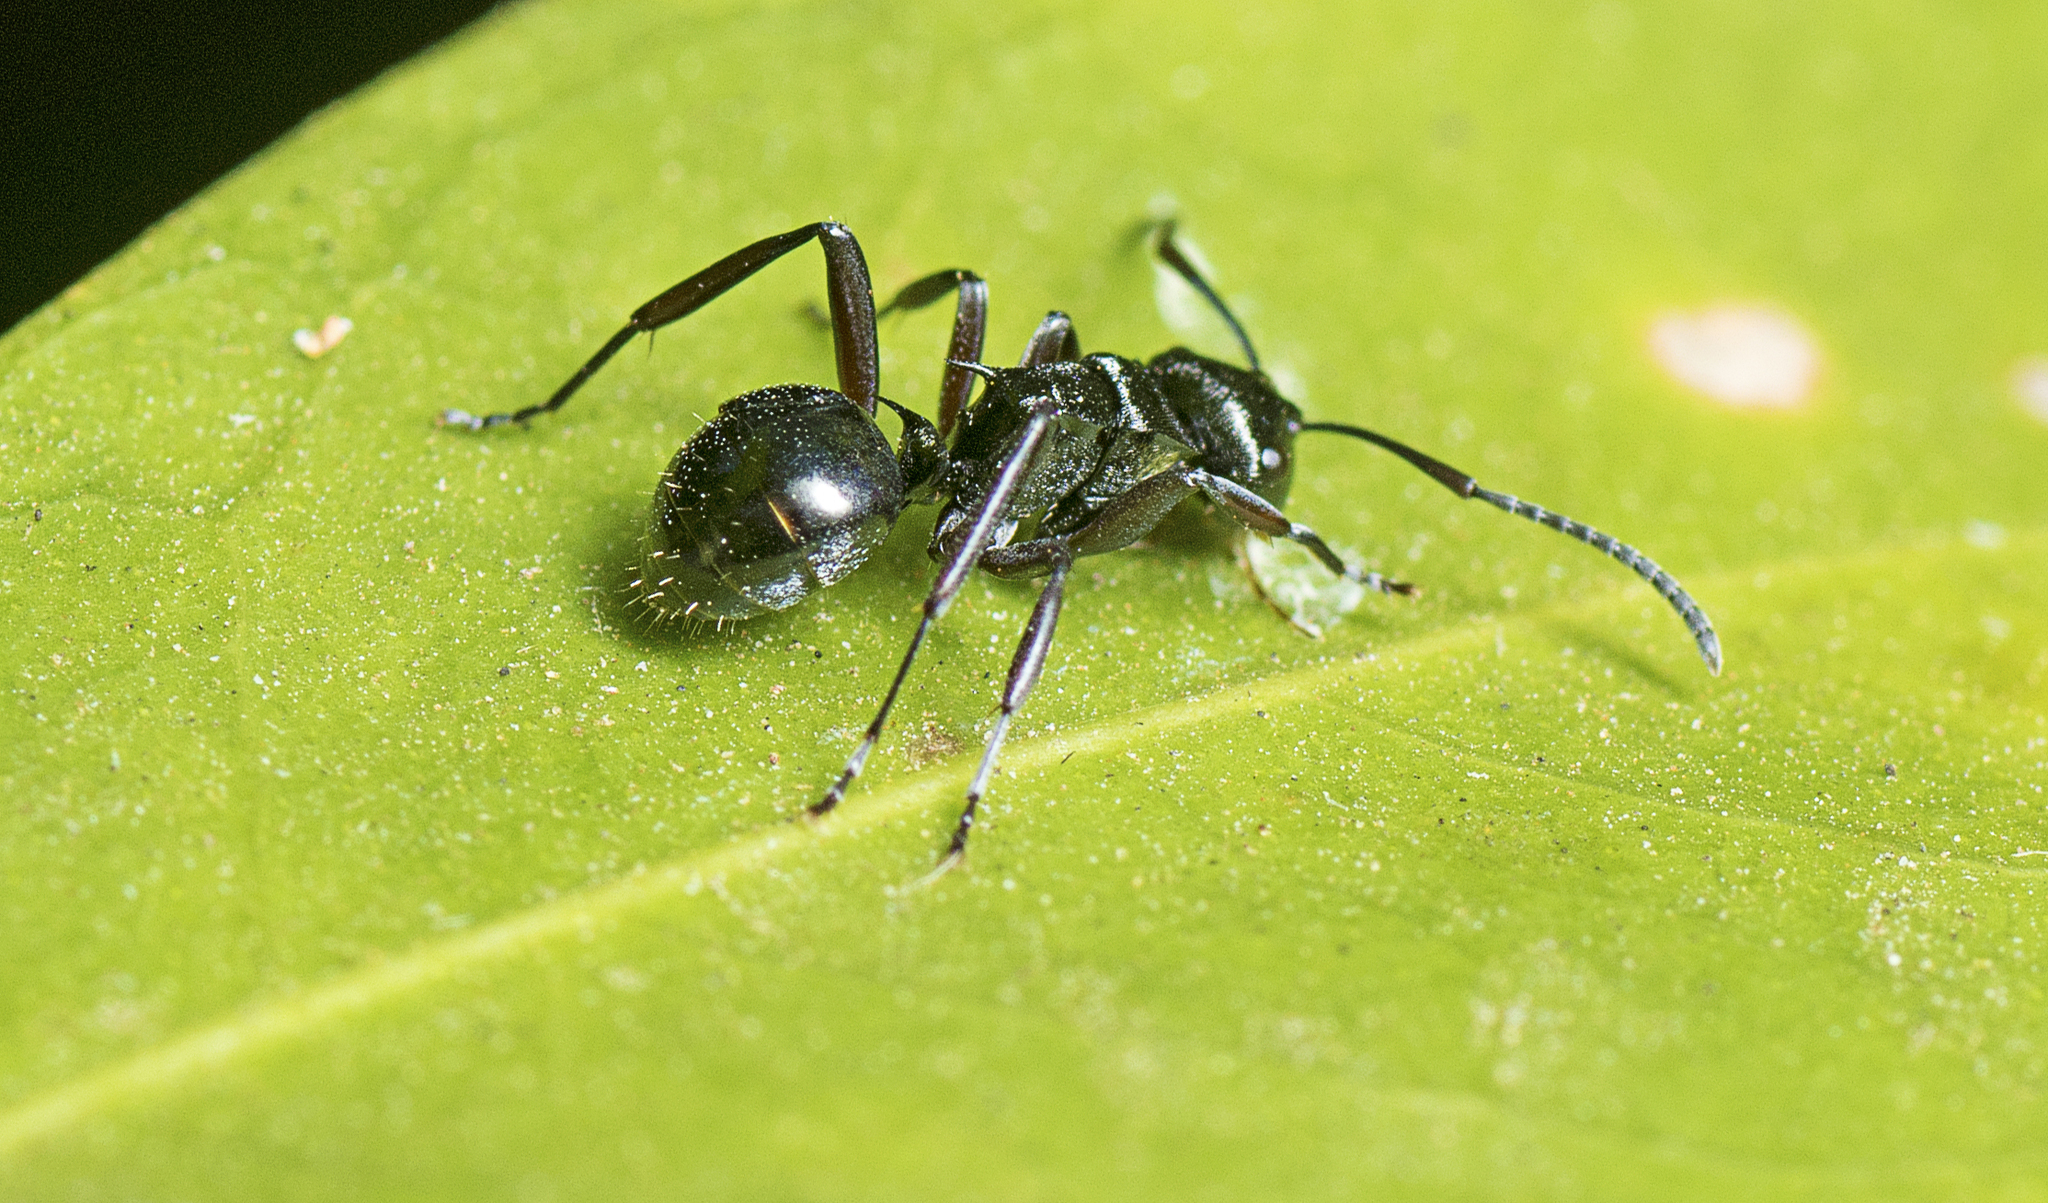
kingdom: Animalia
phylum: Arthropoda
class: Insecta
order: Hymenoptera
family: Formicidae
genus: Polyrhachis
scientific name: Polyrhachis clio
